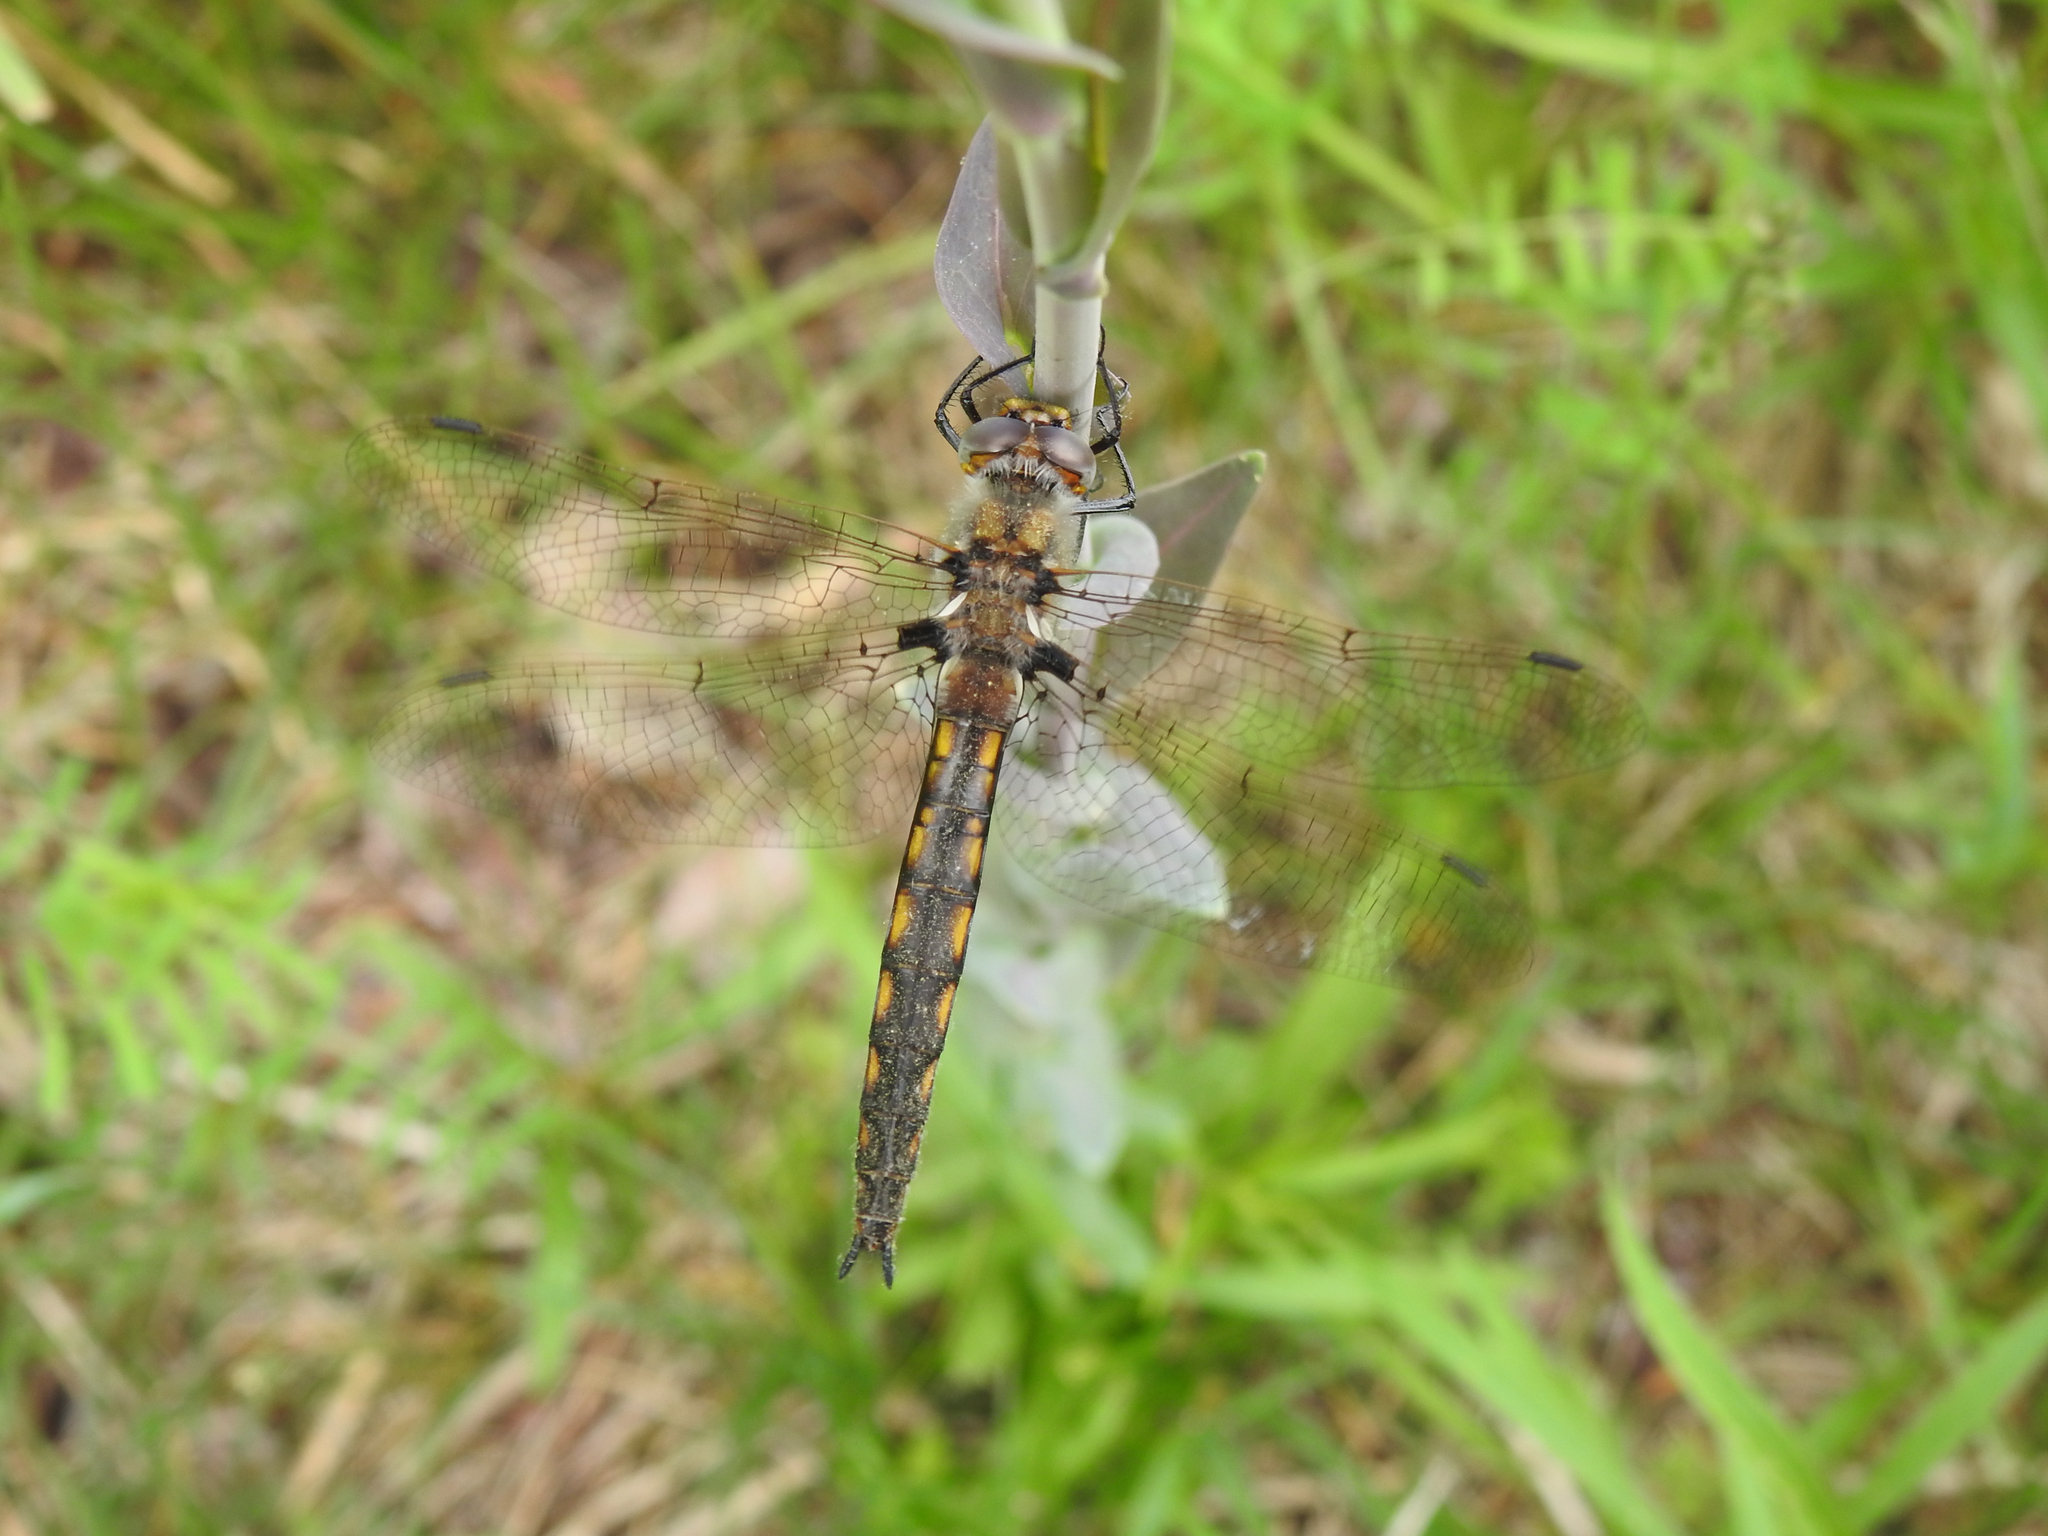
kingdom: Animalia
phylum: Arthropoda
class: Insecta
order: Odonata
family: Corduliidae
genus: Epitheca
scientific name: Epitheca canis
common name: Beaverpond baskettail
